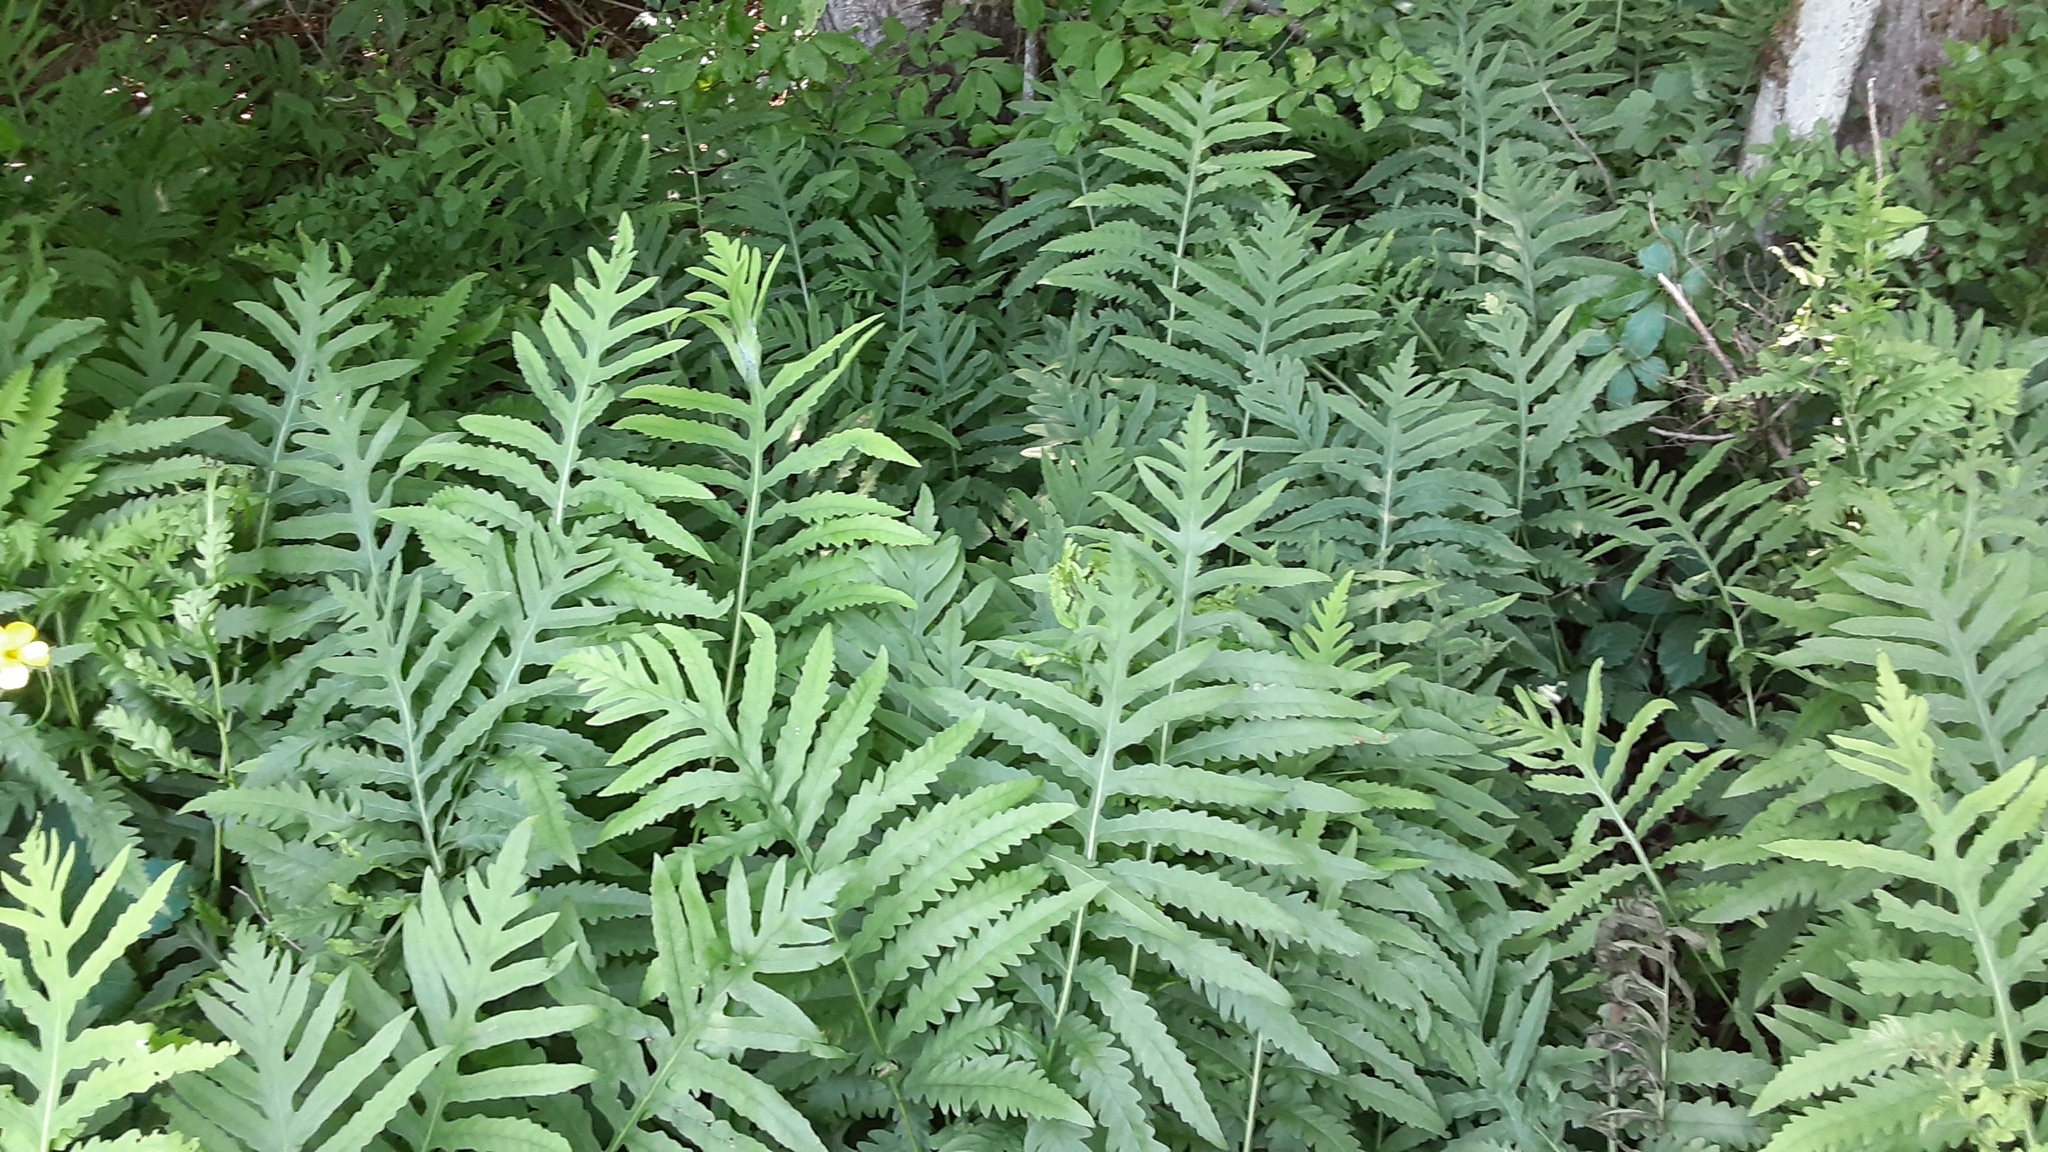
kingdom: Plantae
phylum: Tracheophyta
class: Polypodiopsida
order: Polypodiales
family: Onocleaceae
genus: Onoclea
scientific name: Onoclea sensibilis
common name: Sensitive fern
